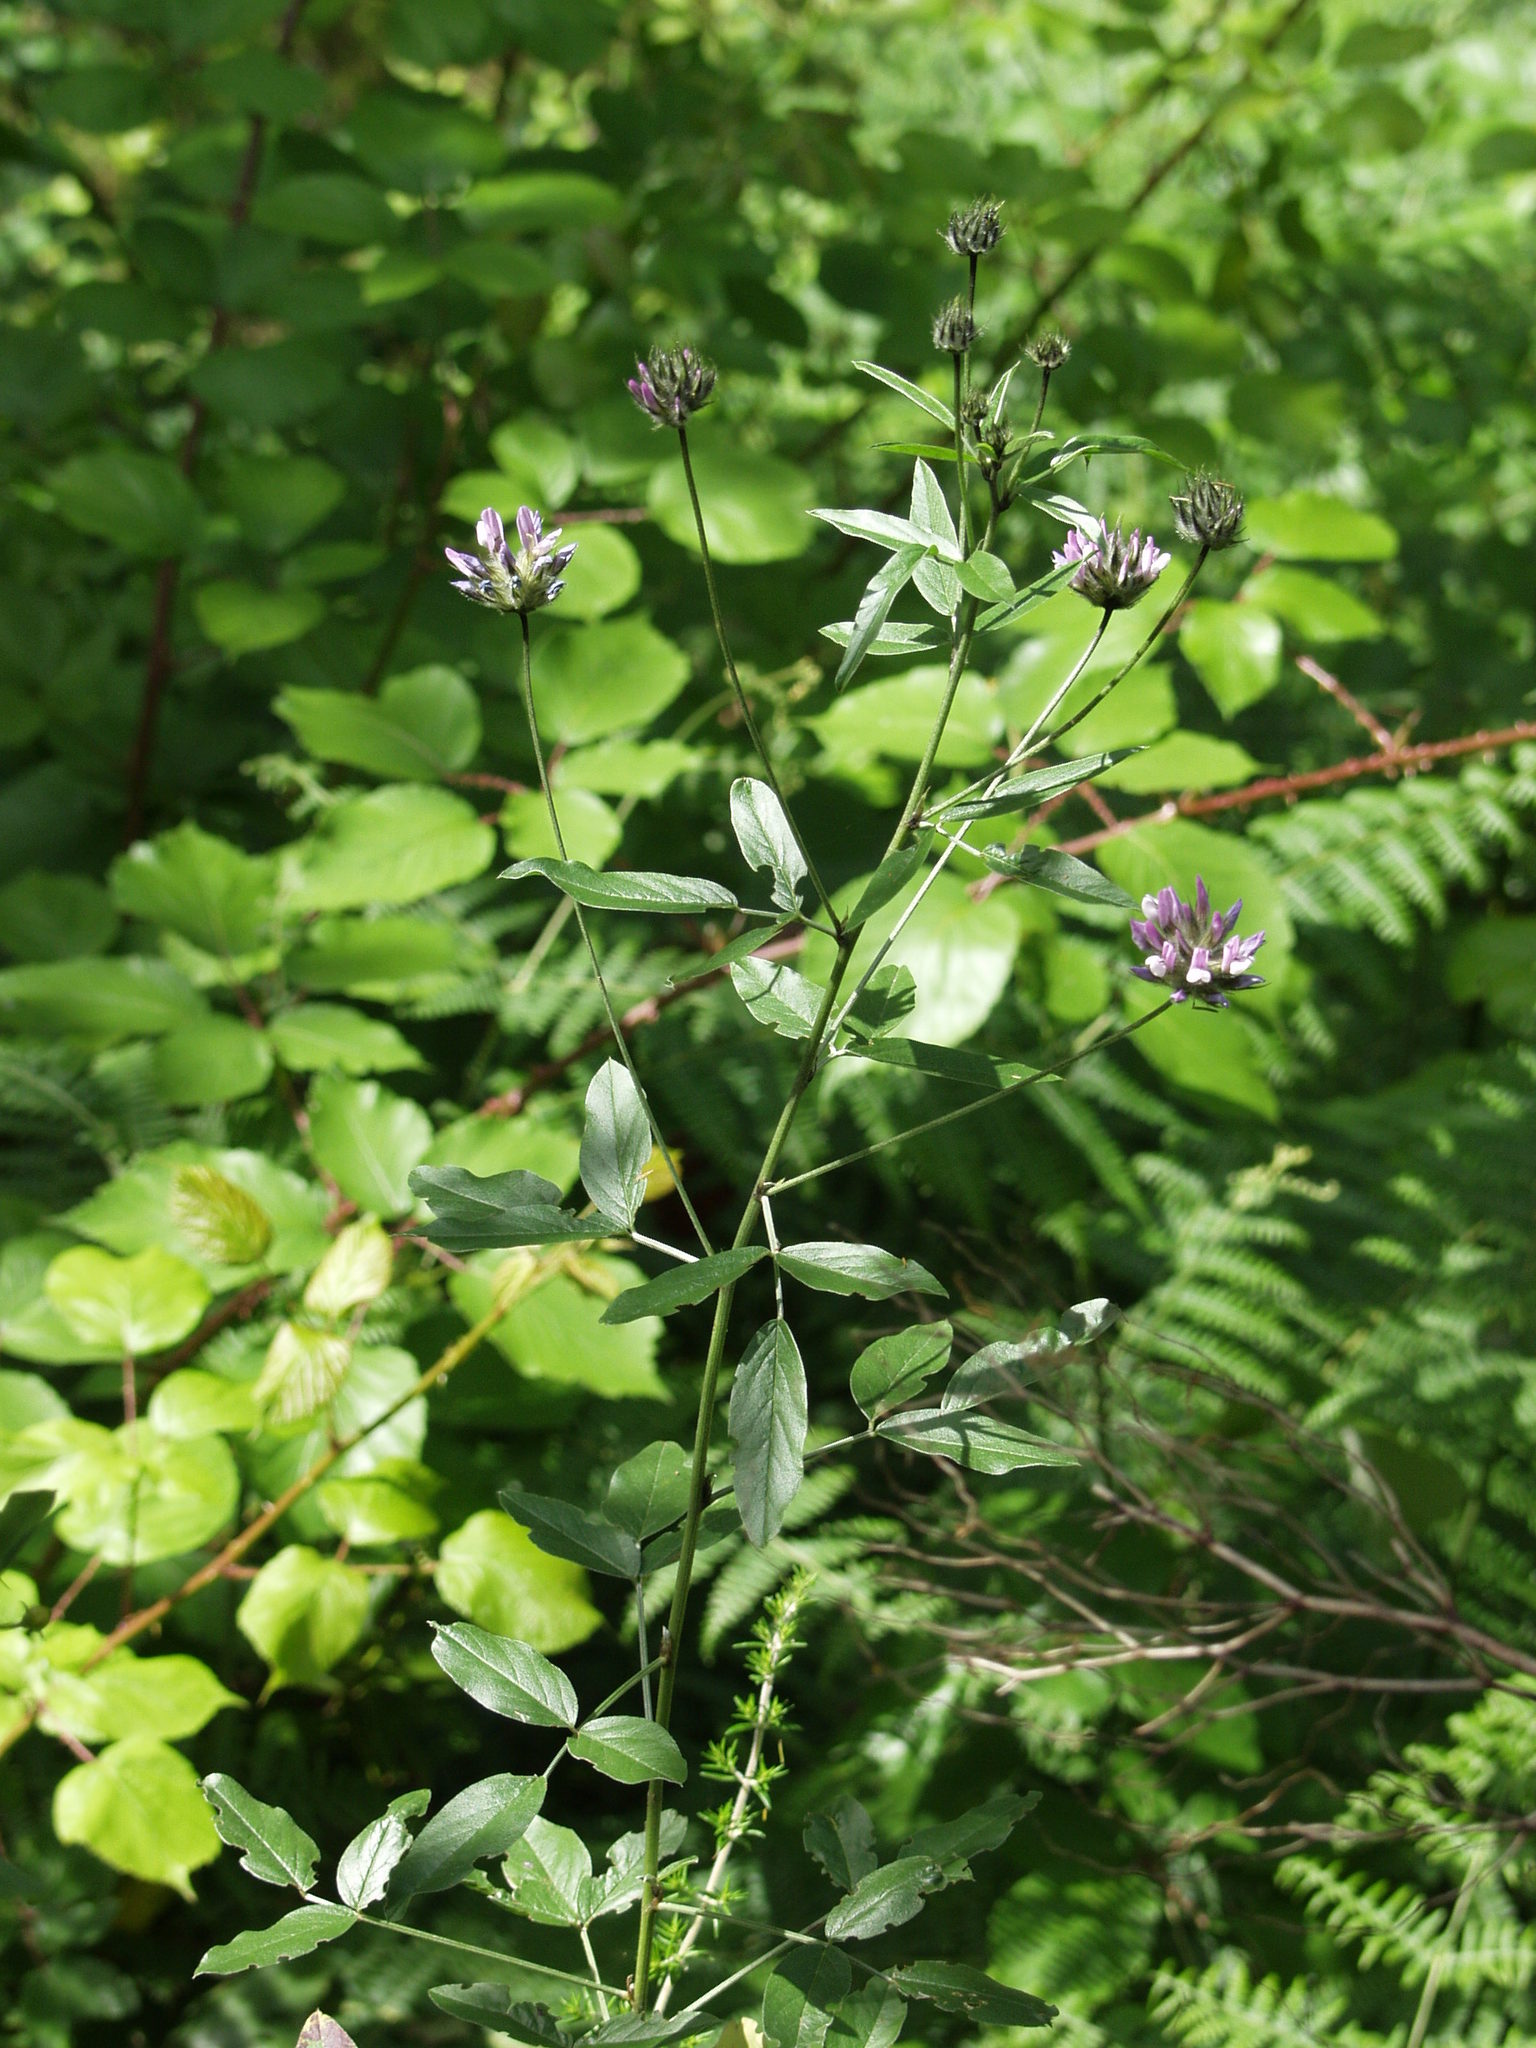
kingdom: Plantae
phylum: Tracheophyta
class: Magnoliopsida
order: Fabales
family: Fabaceae
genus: Bituminaria
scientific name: Bituminaria bituminosa
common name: Arabian pea
